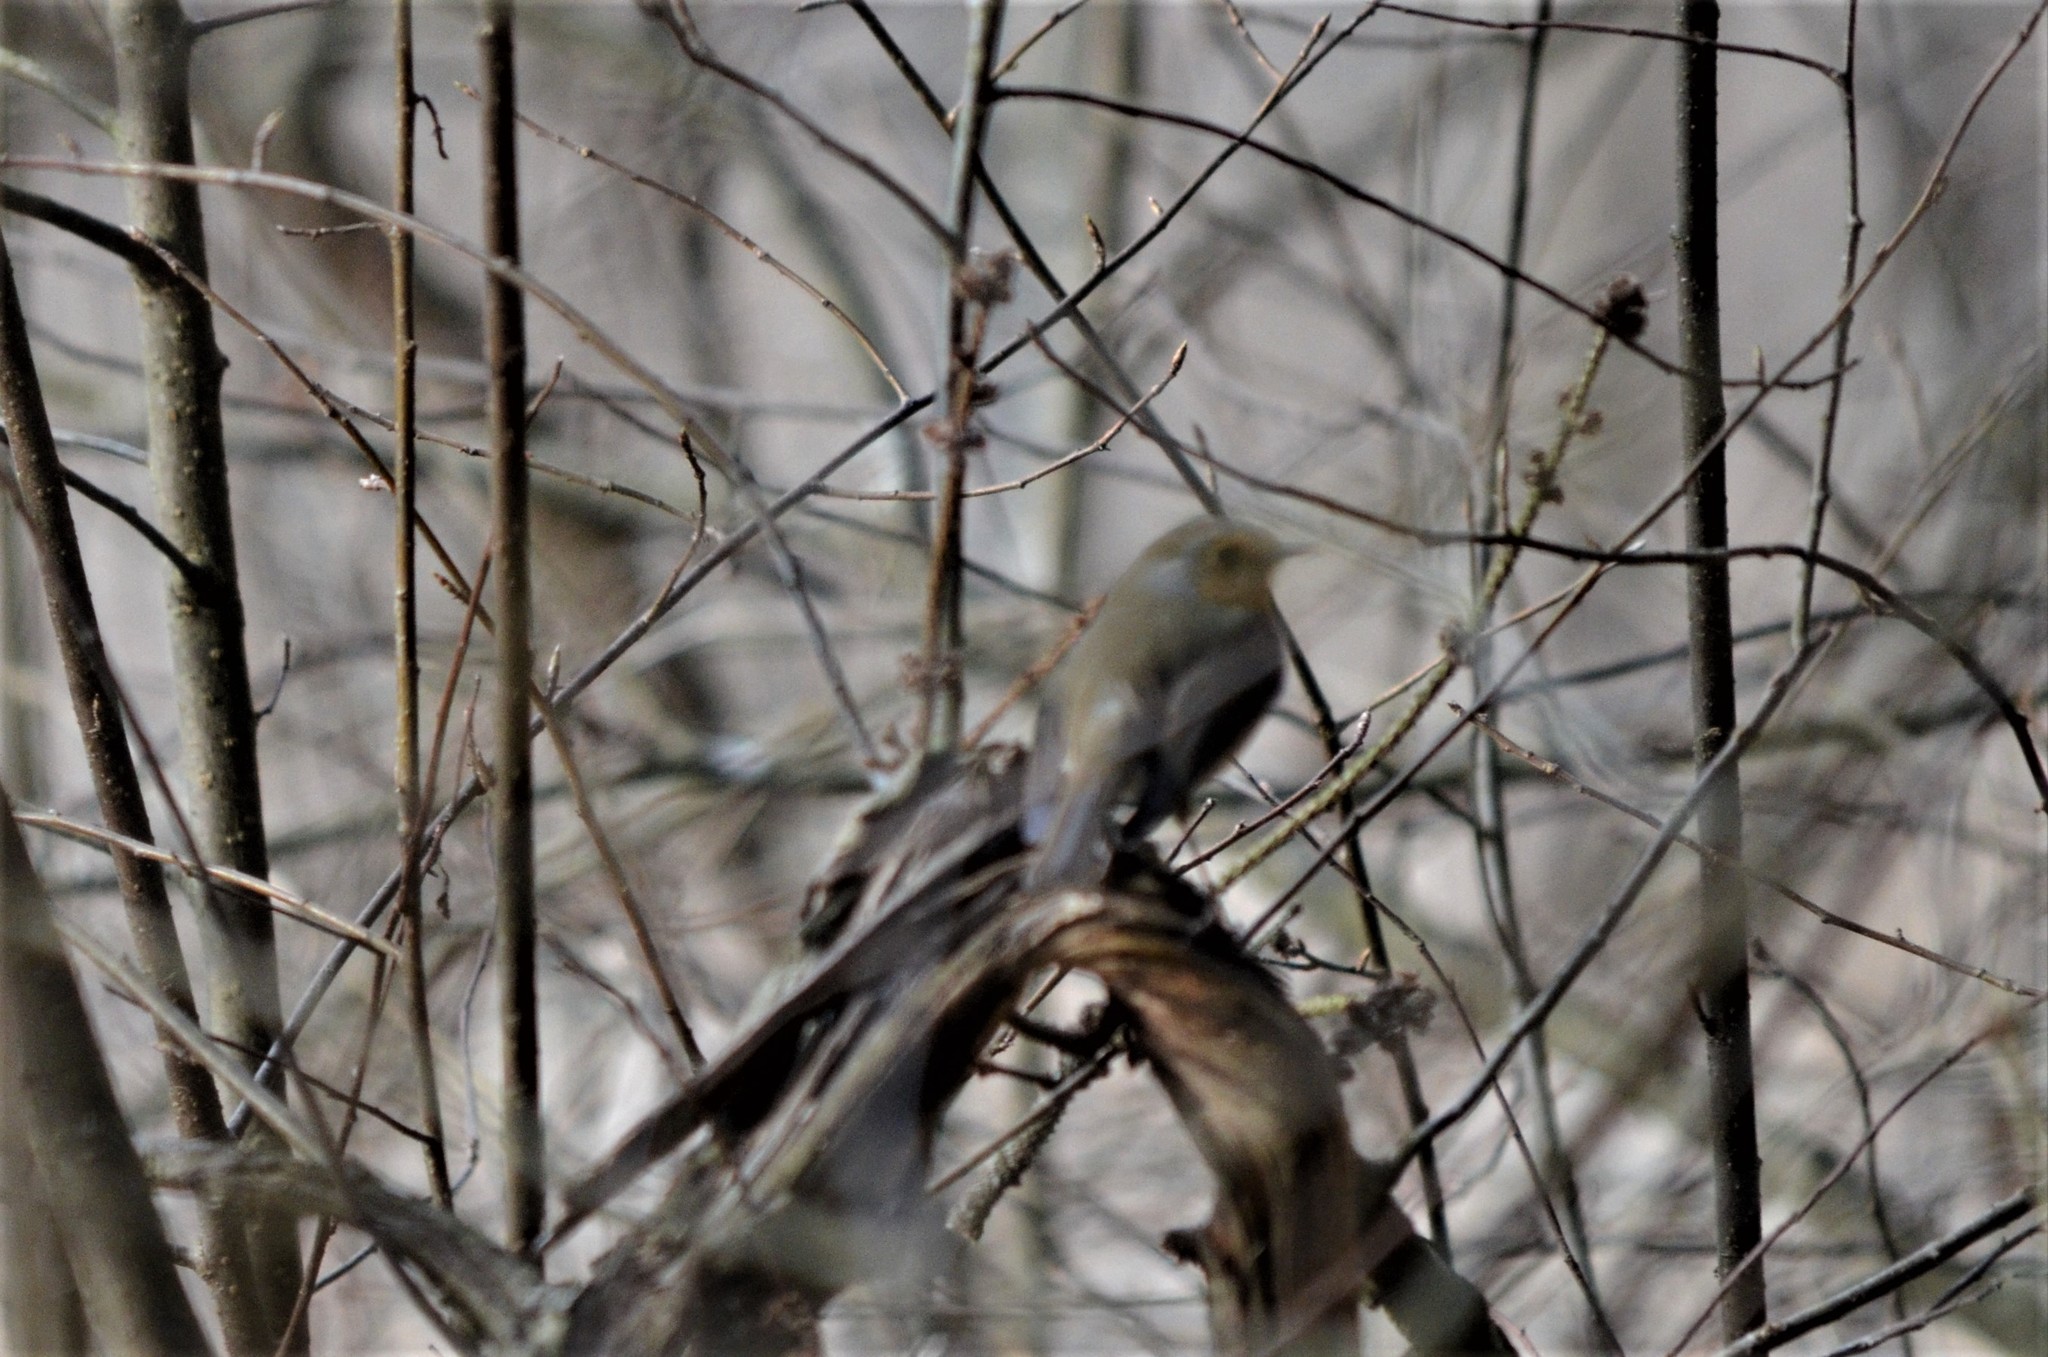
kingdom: Animalia
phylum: Chordata
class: Aves
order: Passeriformes
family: Muscicapidae
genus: Erithacus
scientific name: Erithacus rubecula
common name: European robin
